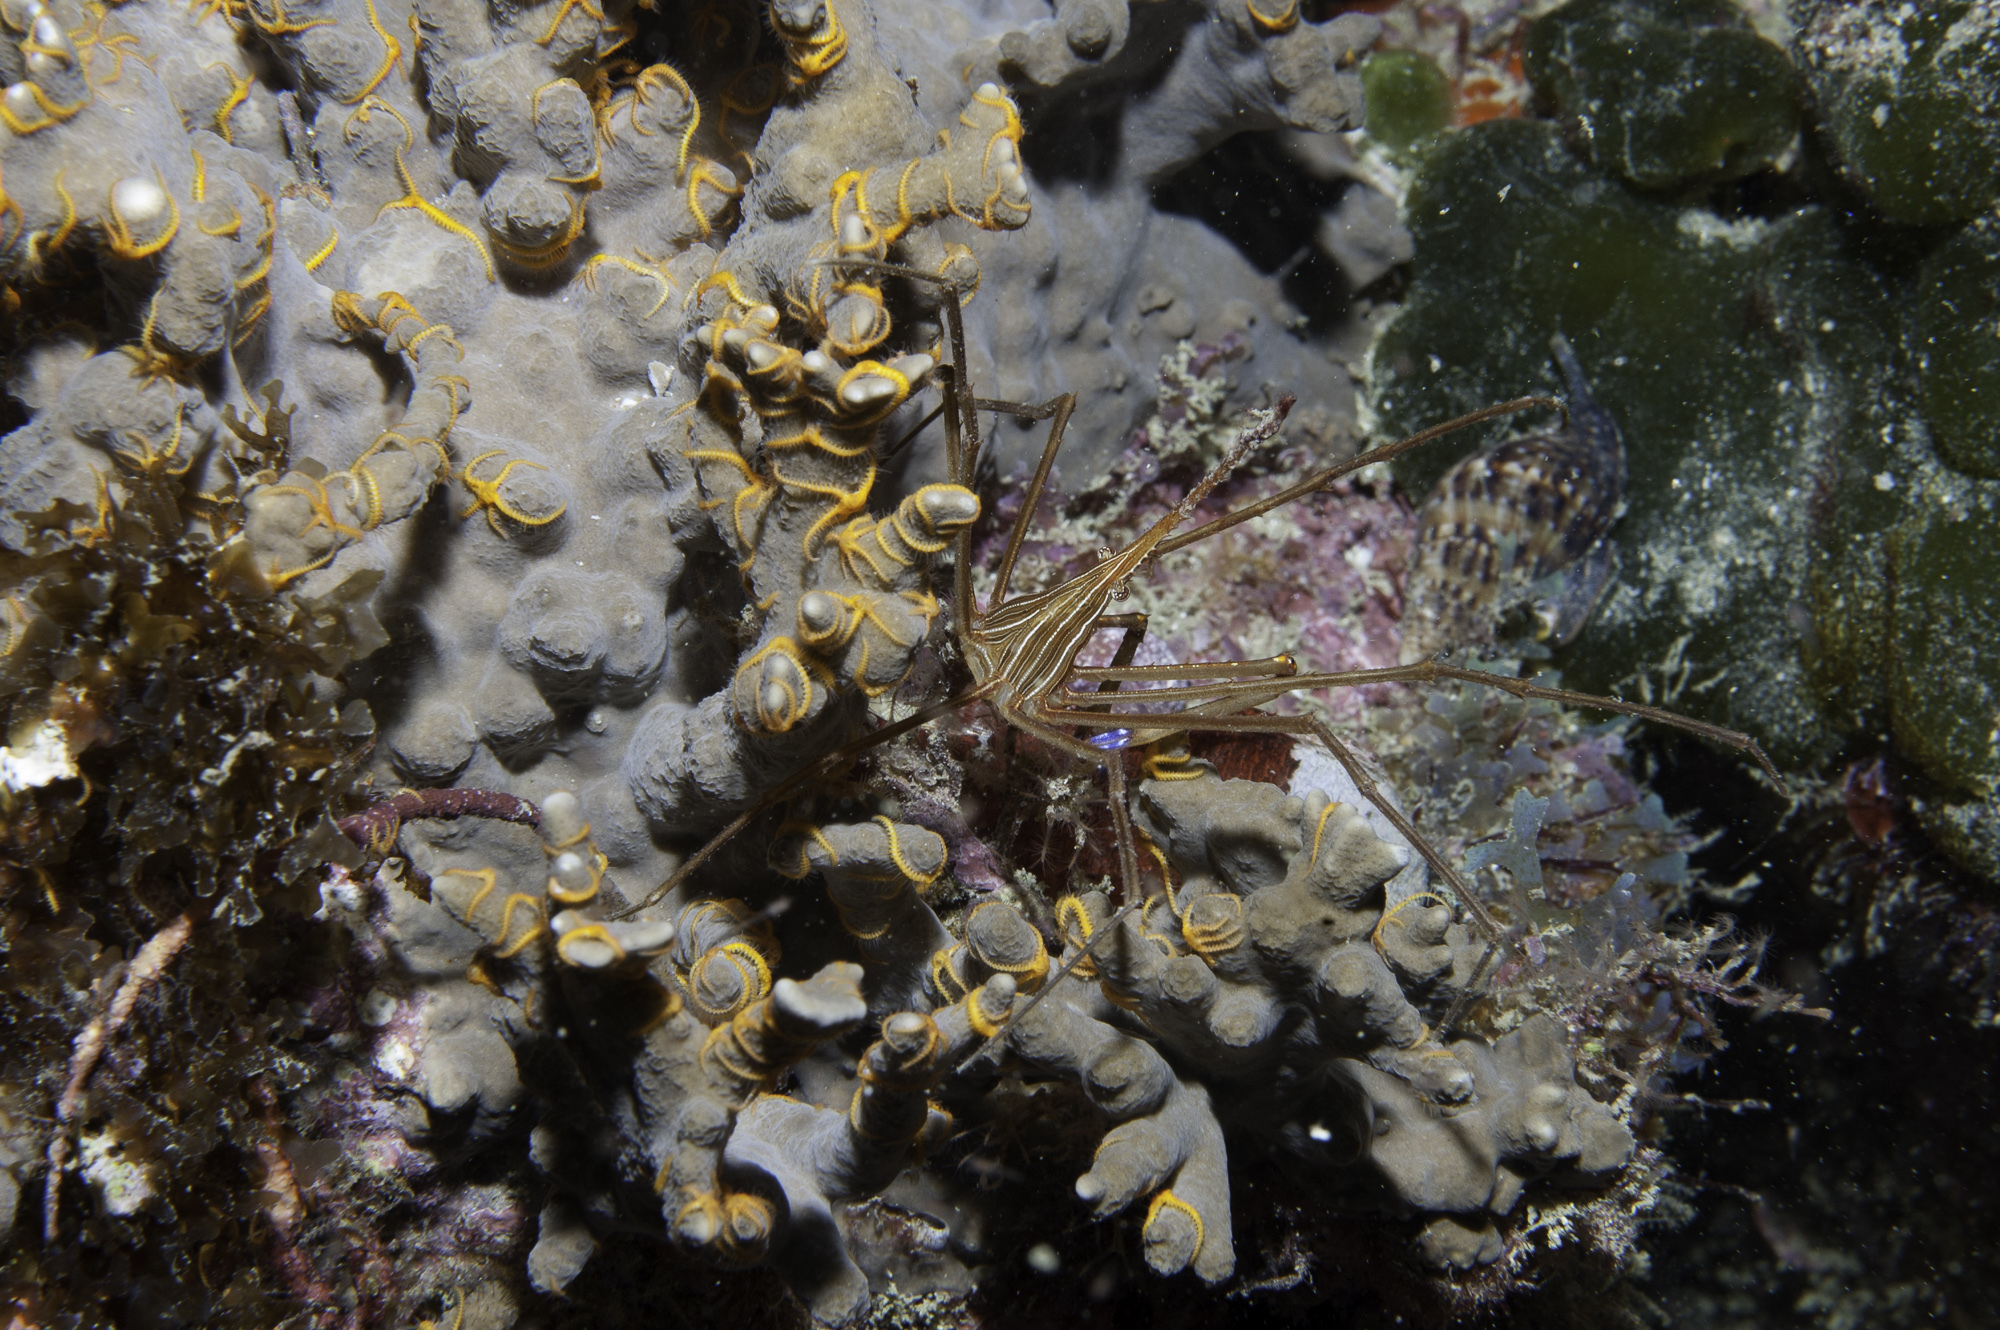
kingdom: Animalia
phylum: Arthropoda
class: Malacostraca
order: Decapoda
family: Inachoididae
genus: Stenorhynchus
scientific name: Stenorhynchus seticornis
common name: Arrow crab
